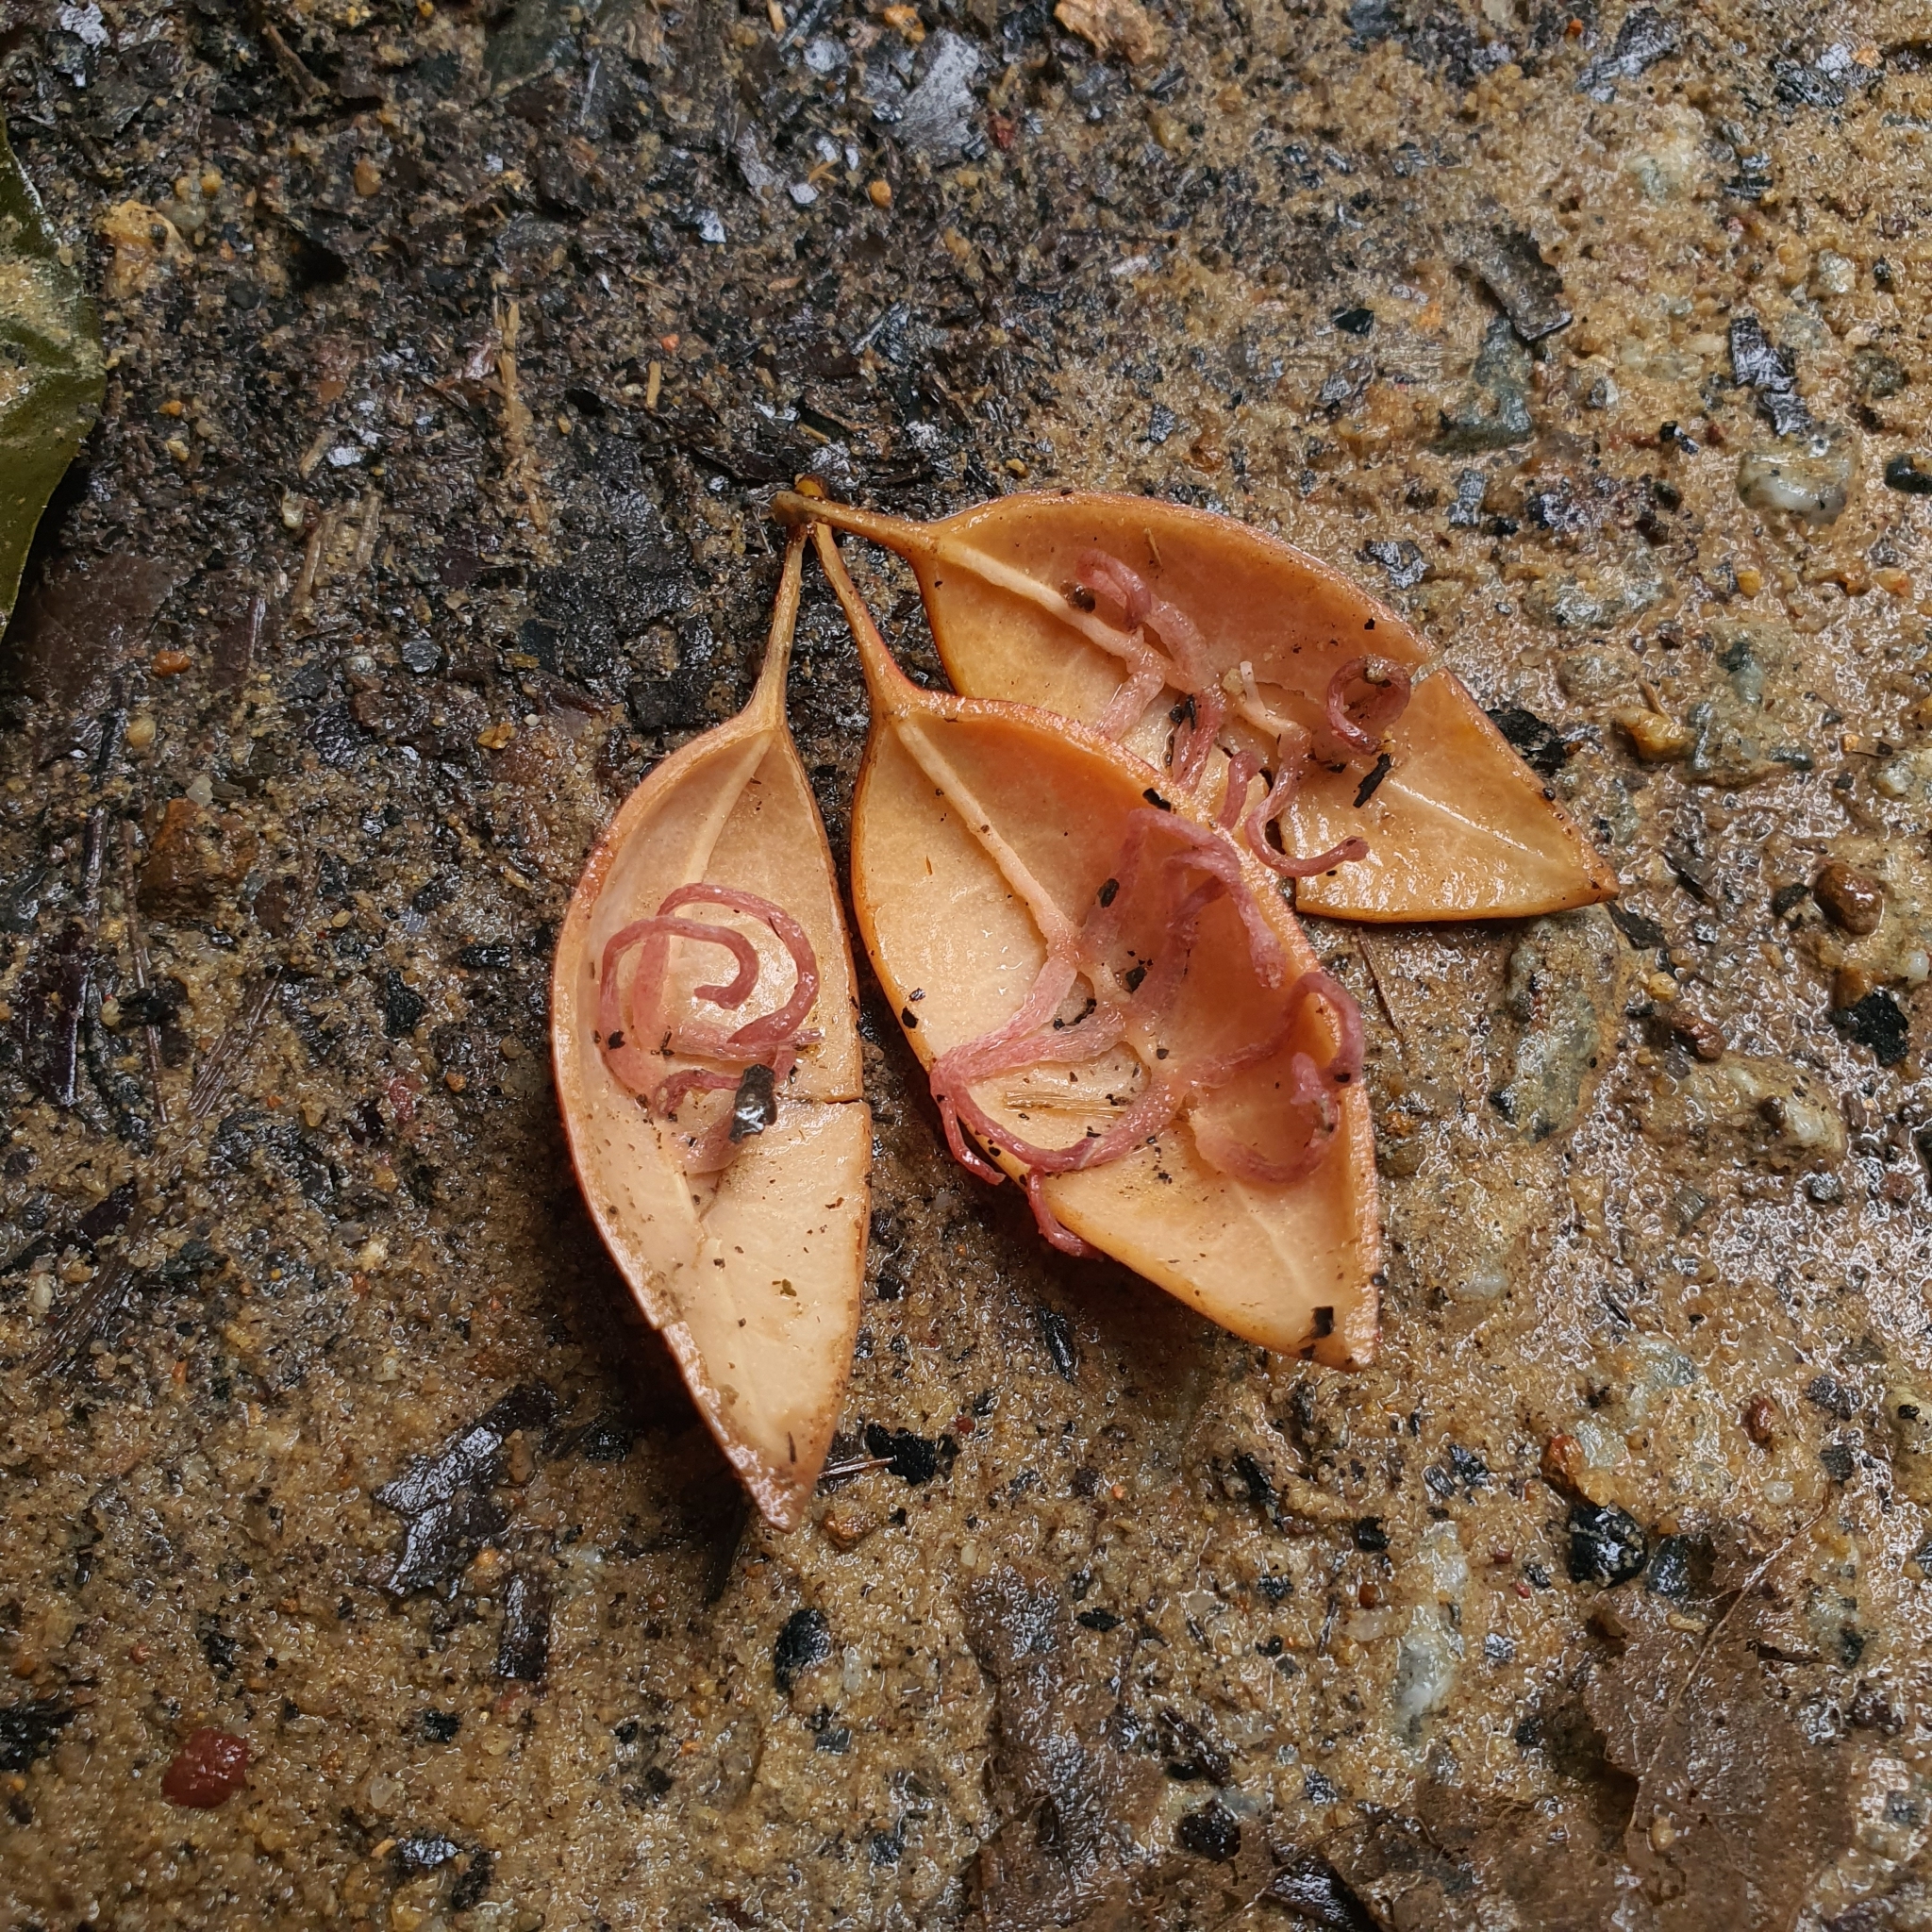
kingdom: Plantae
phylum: Tracheophyta
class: Magnoliopsida
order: Malpighiales
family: Passifloraceae
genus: Adenia
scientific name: Adenia macrophylla
